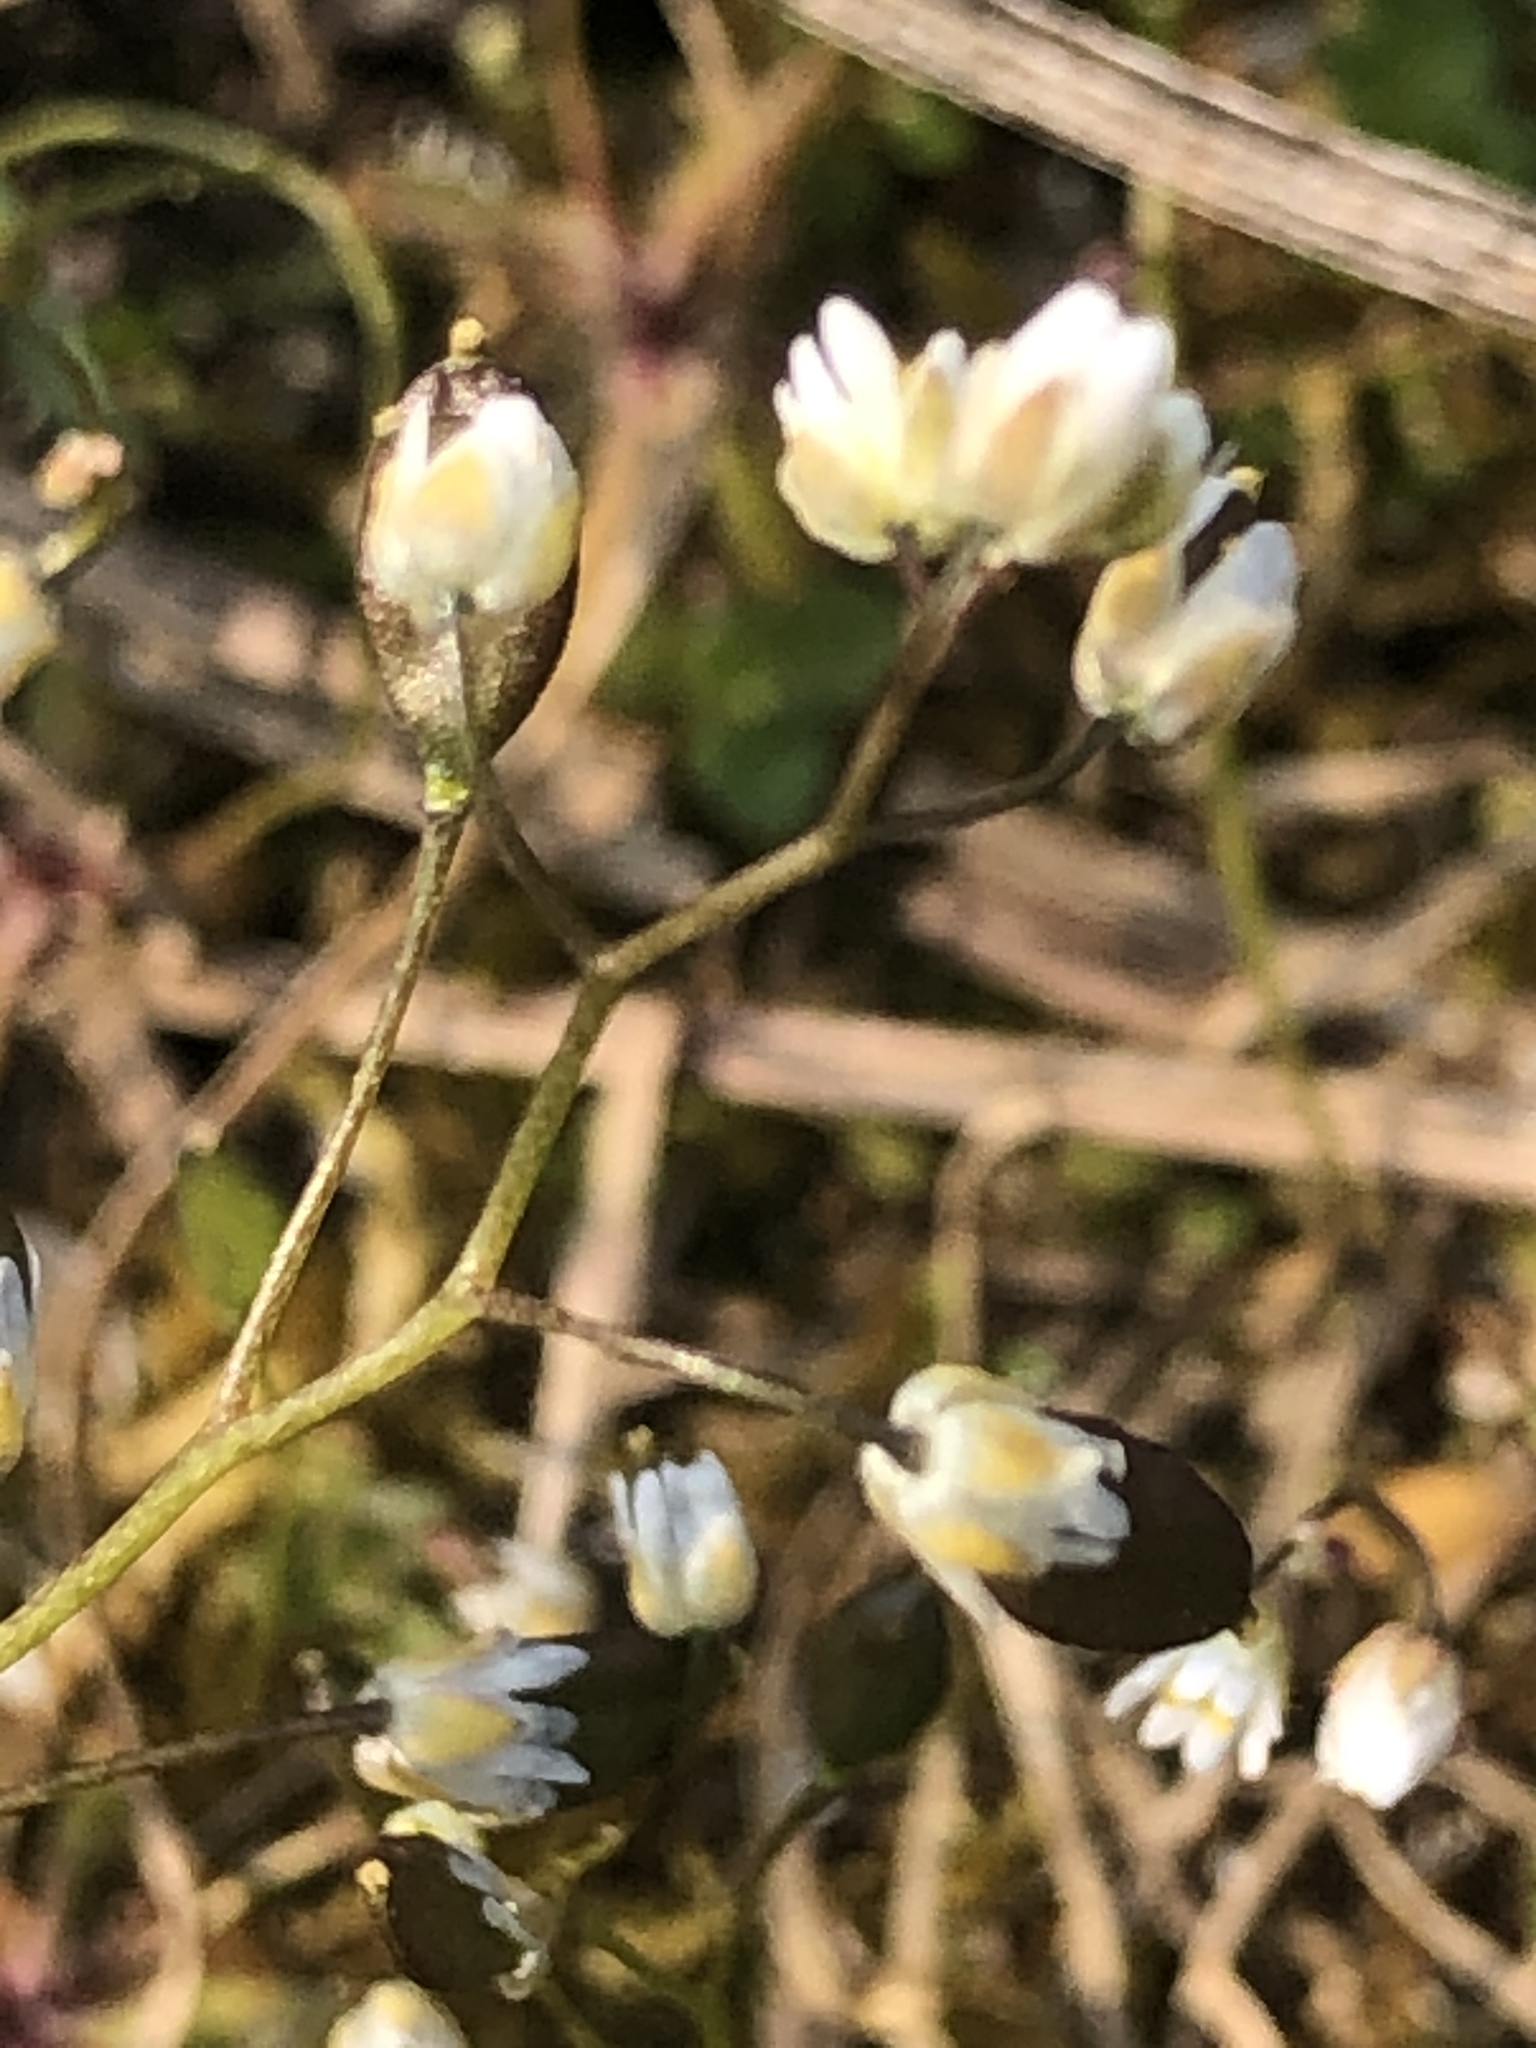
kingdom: Plantae
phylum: Tracheophyta
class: Magnoliopsida
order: Brassicales
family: Brassicaceae
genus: Draba
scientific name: Draba verna
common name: Spring draba
